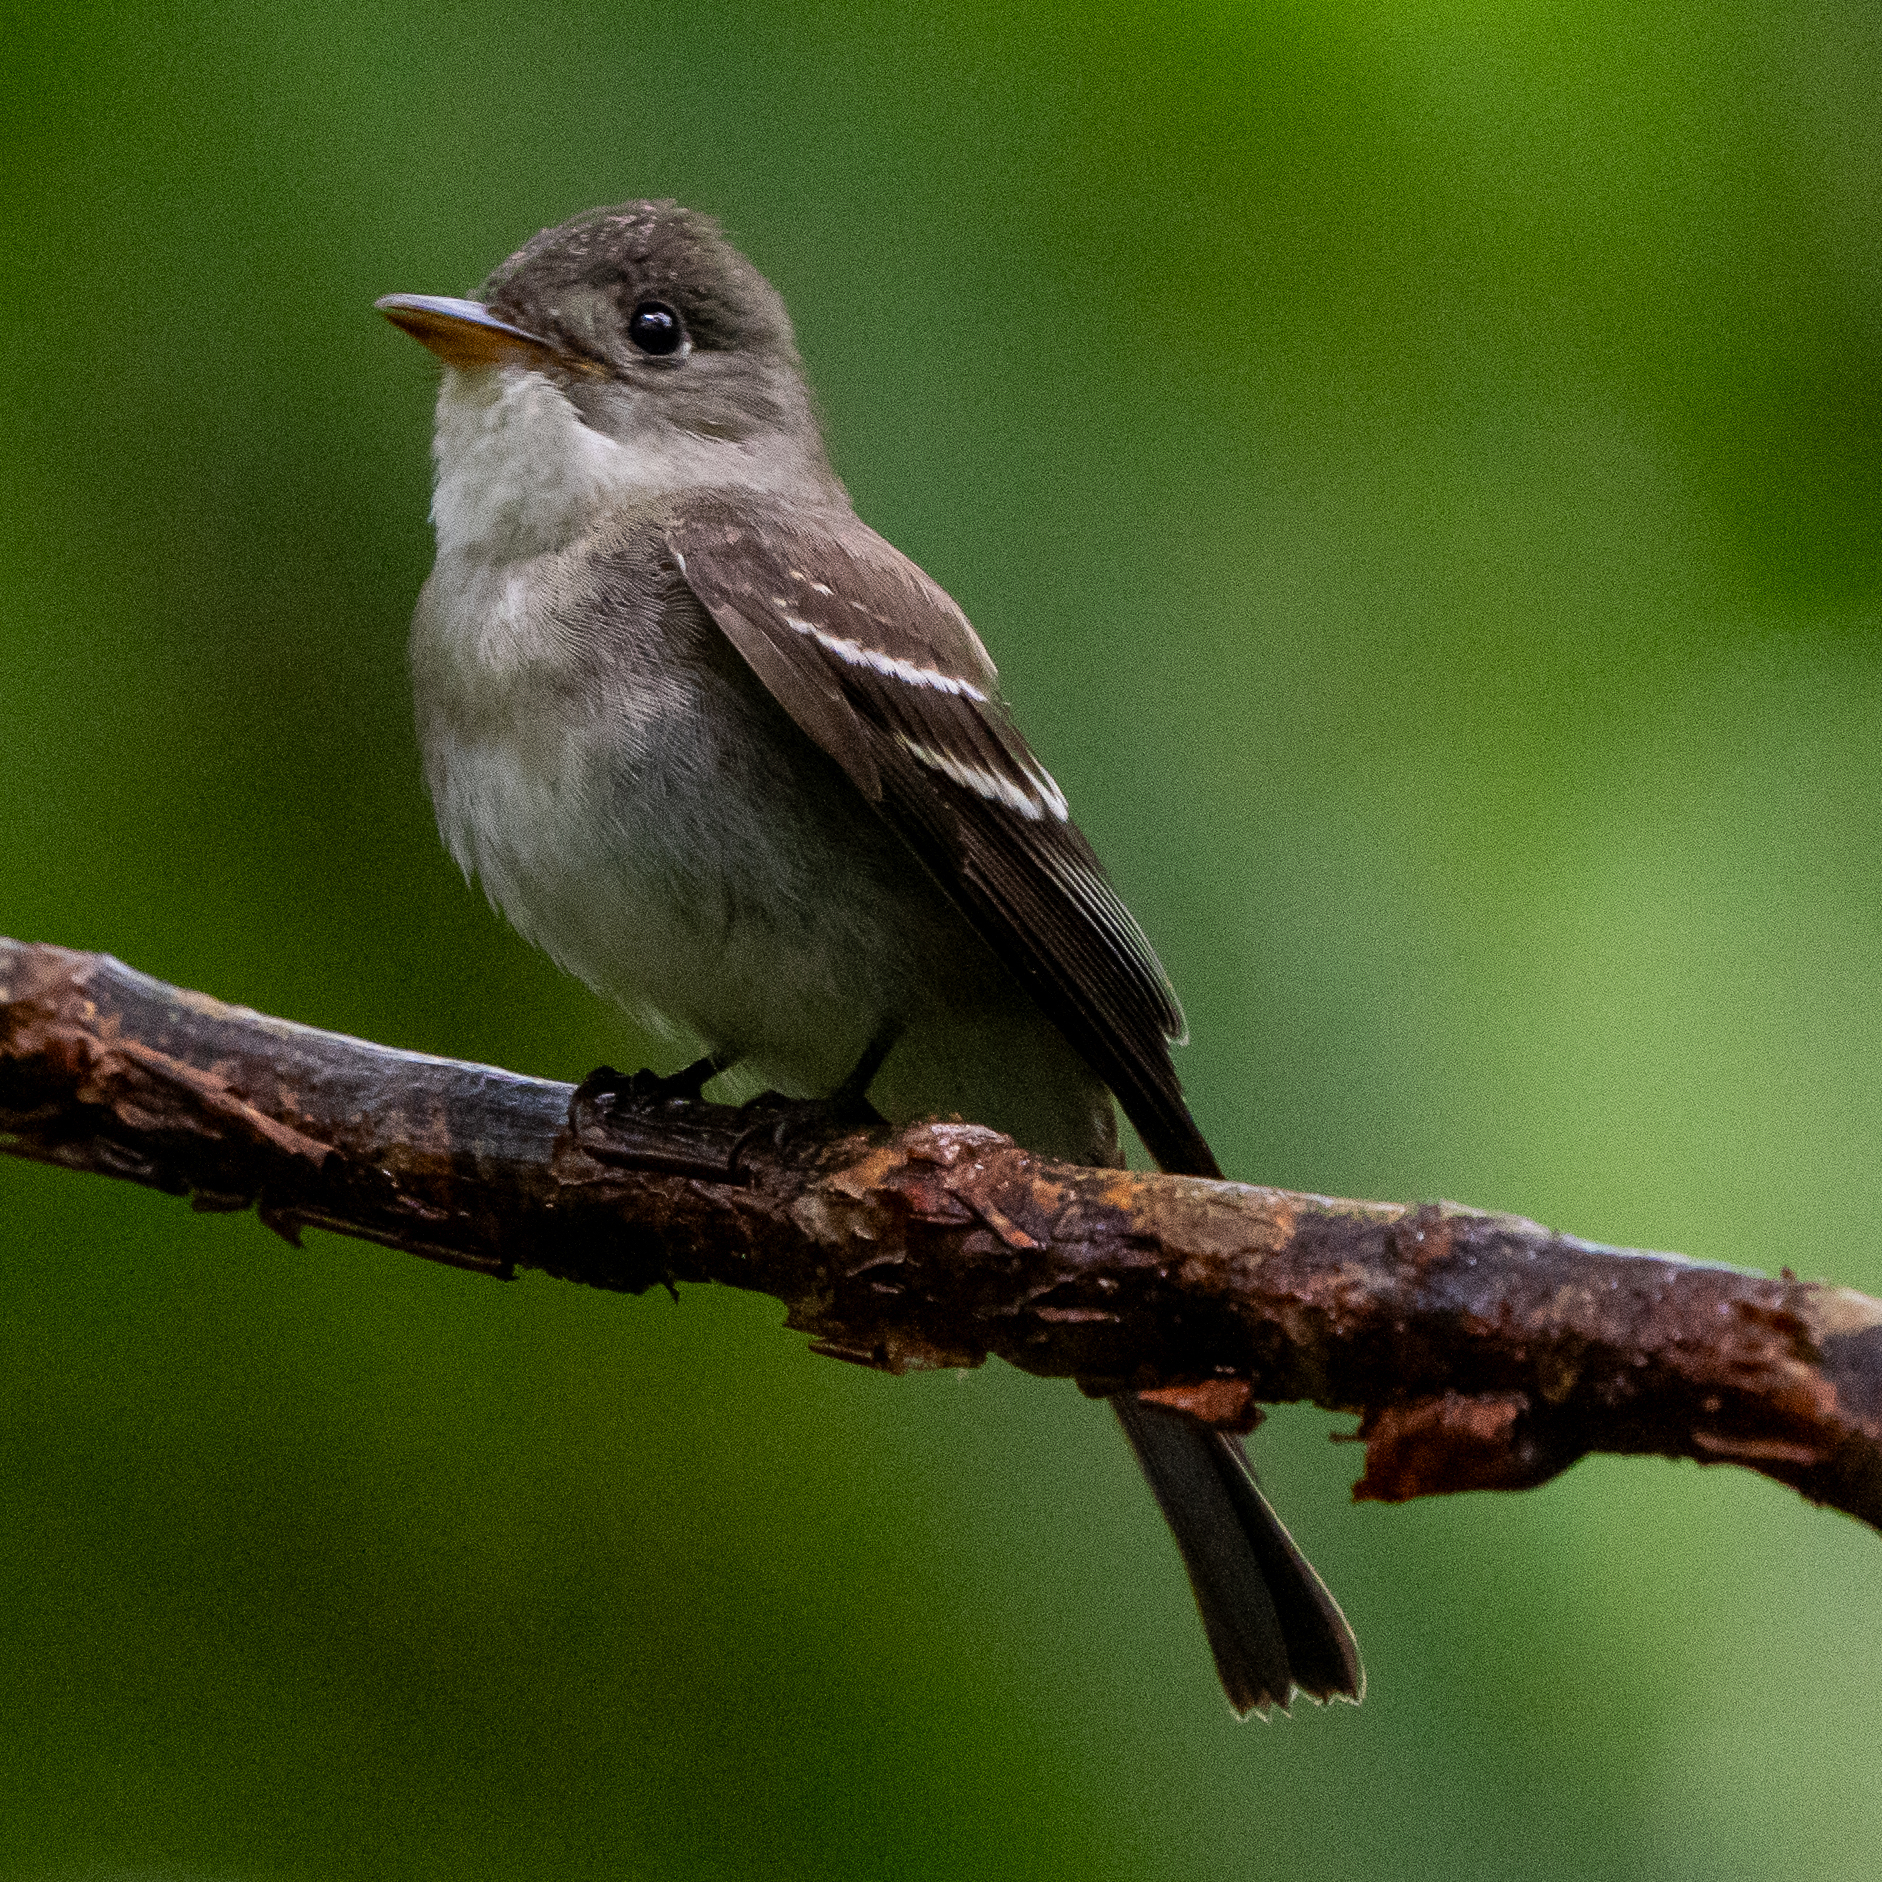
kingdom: Animalia
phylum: Chordata
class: Aves
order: Passeriformes
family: Tyrannidae
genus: Contopus
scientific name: Contopus virens
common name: Eastern wood-pewee
